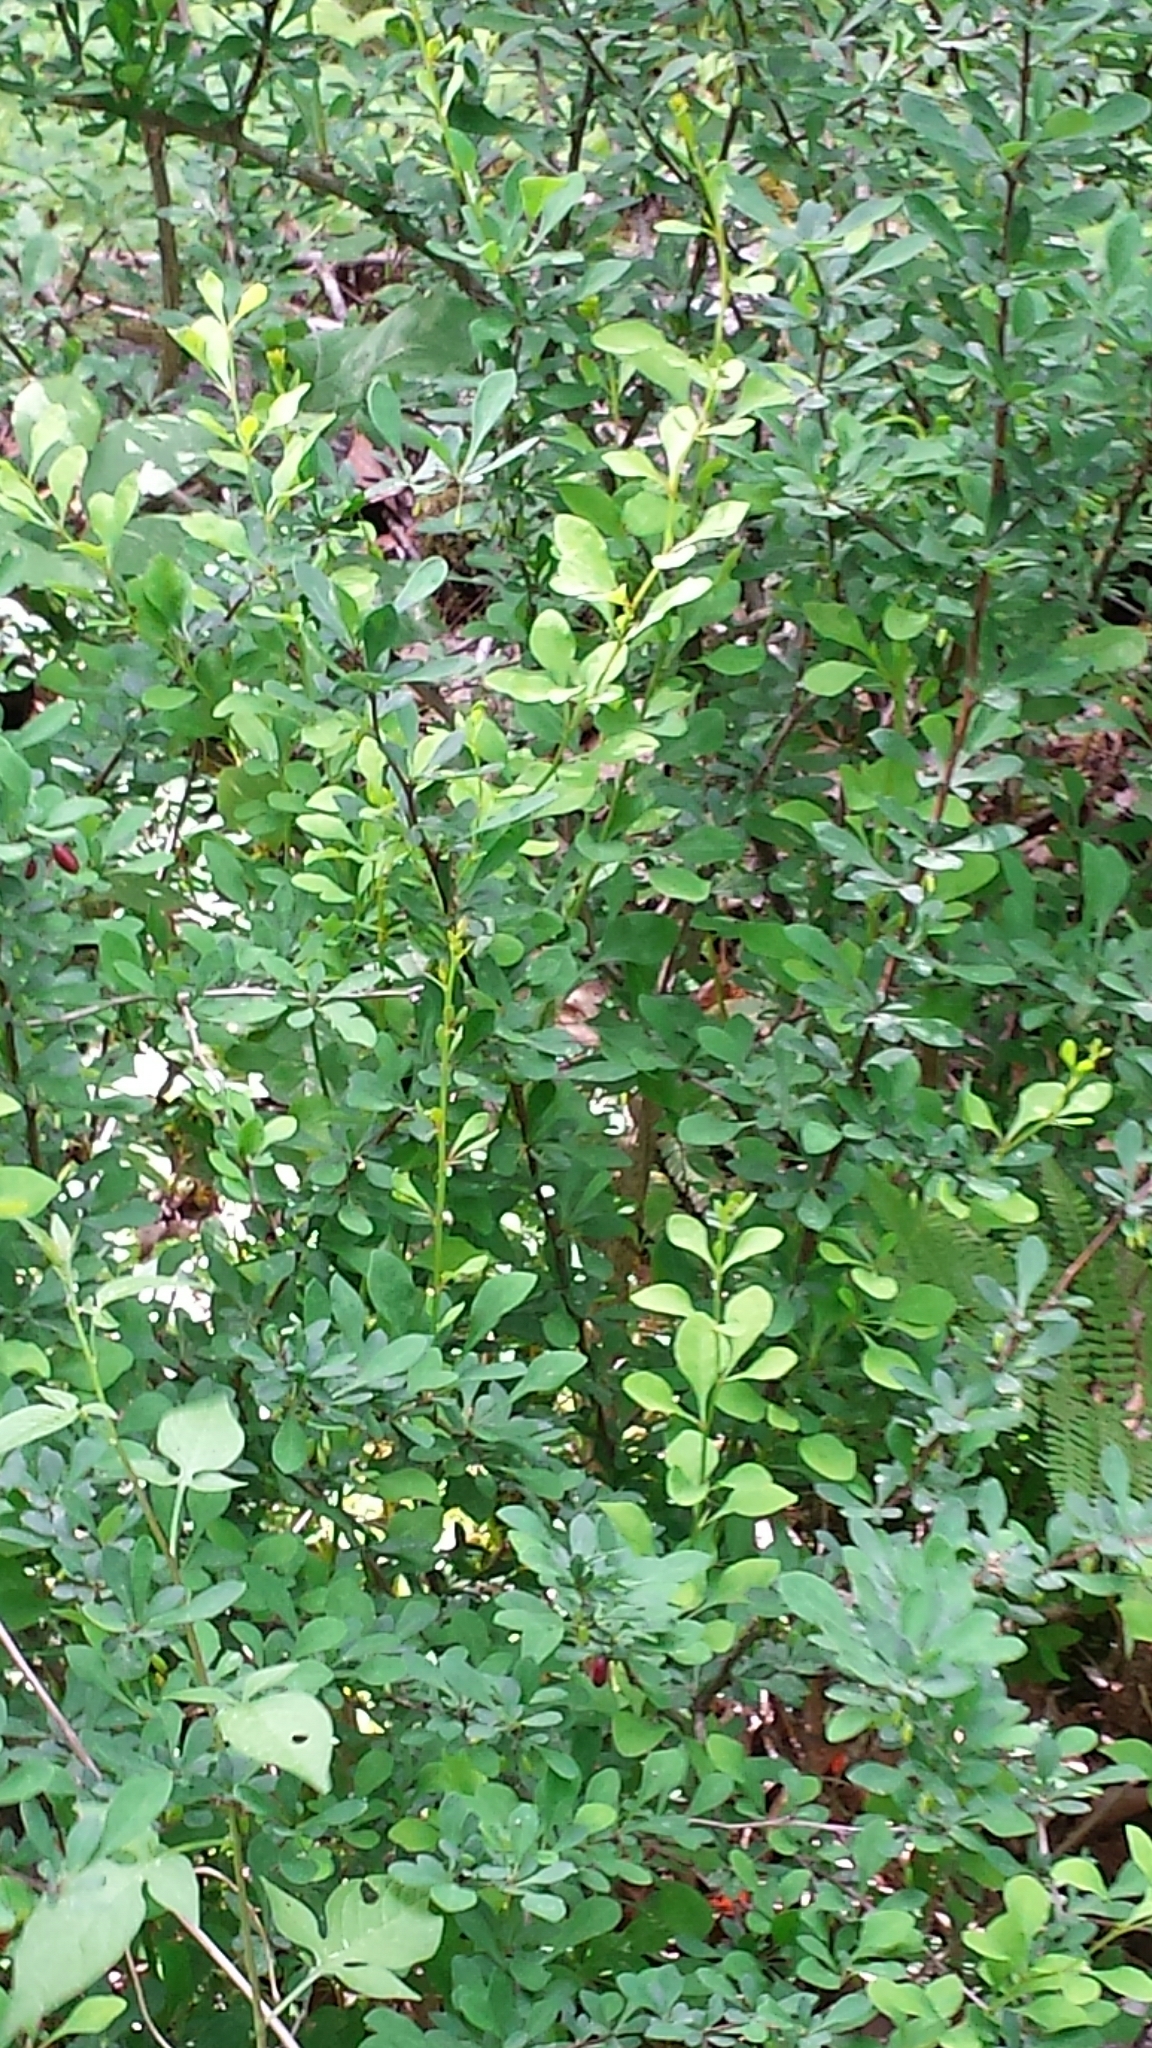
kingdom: Plantae
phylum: Tracheophyta
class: Magnoliopsida
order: Ranunculales
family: Berberidaceae
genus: Berberis
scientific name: Berberis thunbergii
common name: Japanese barberry
